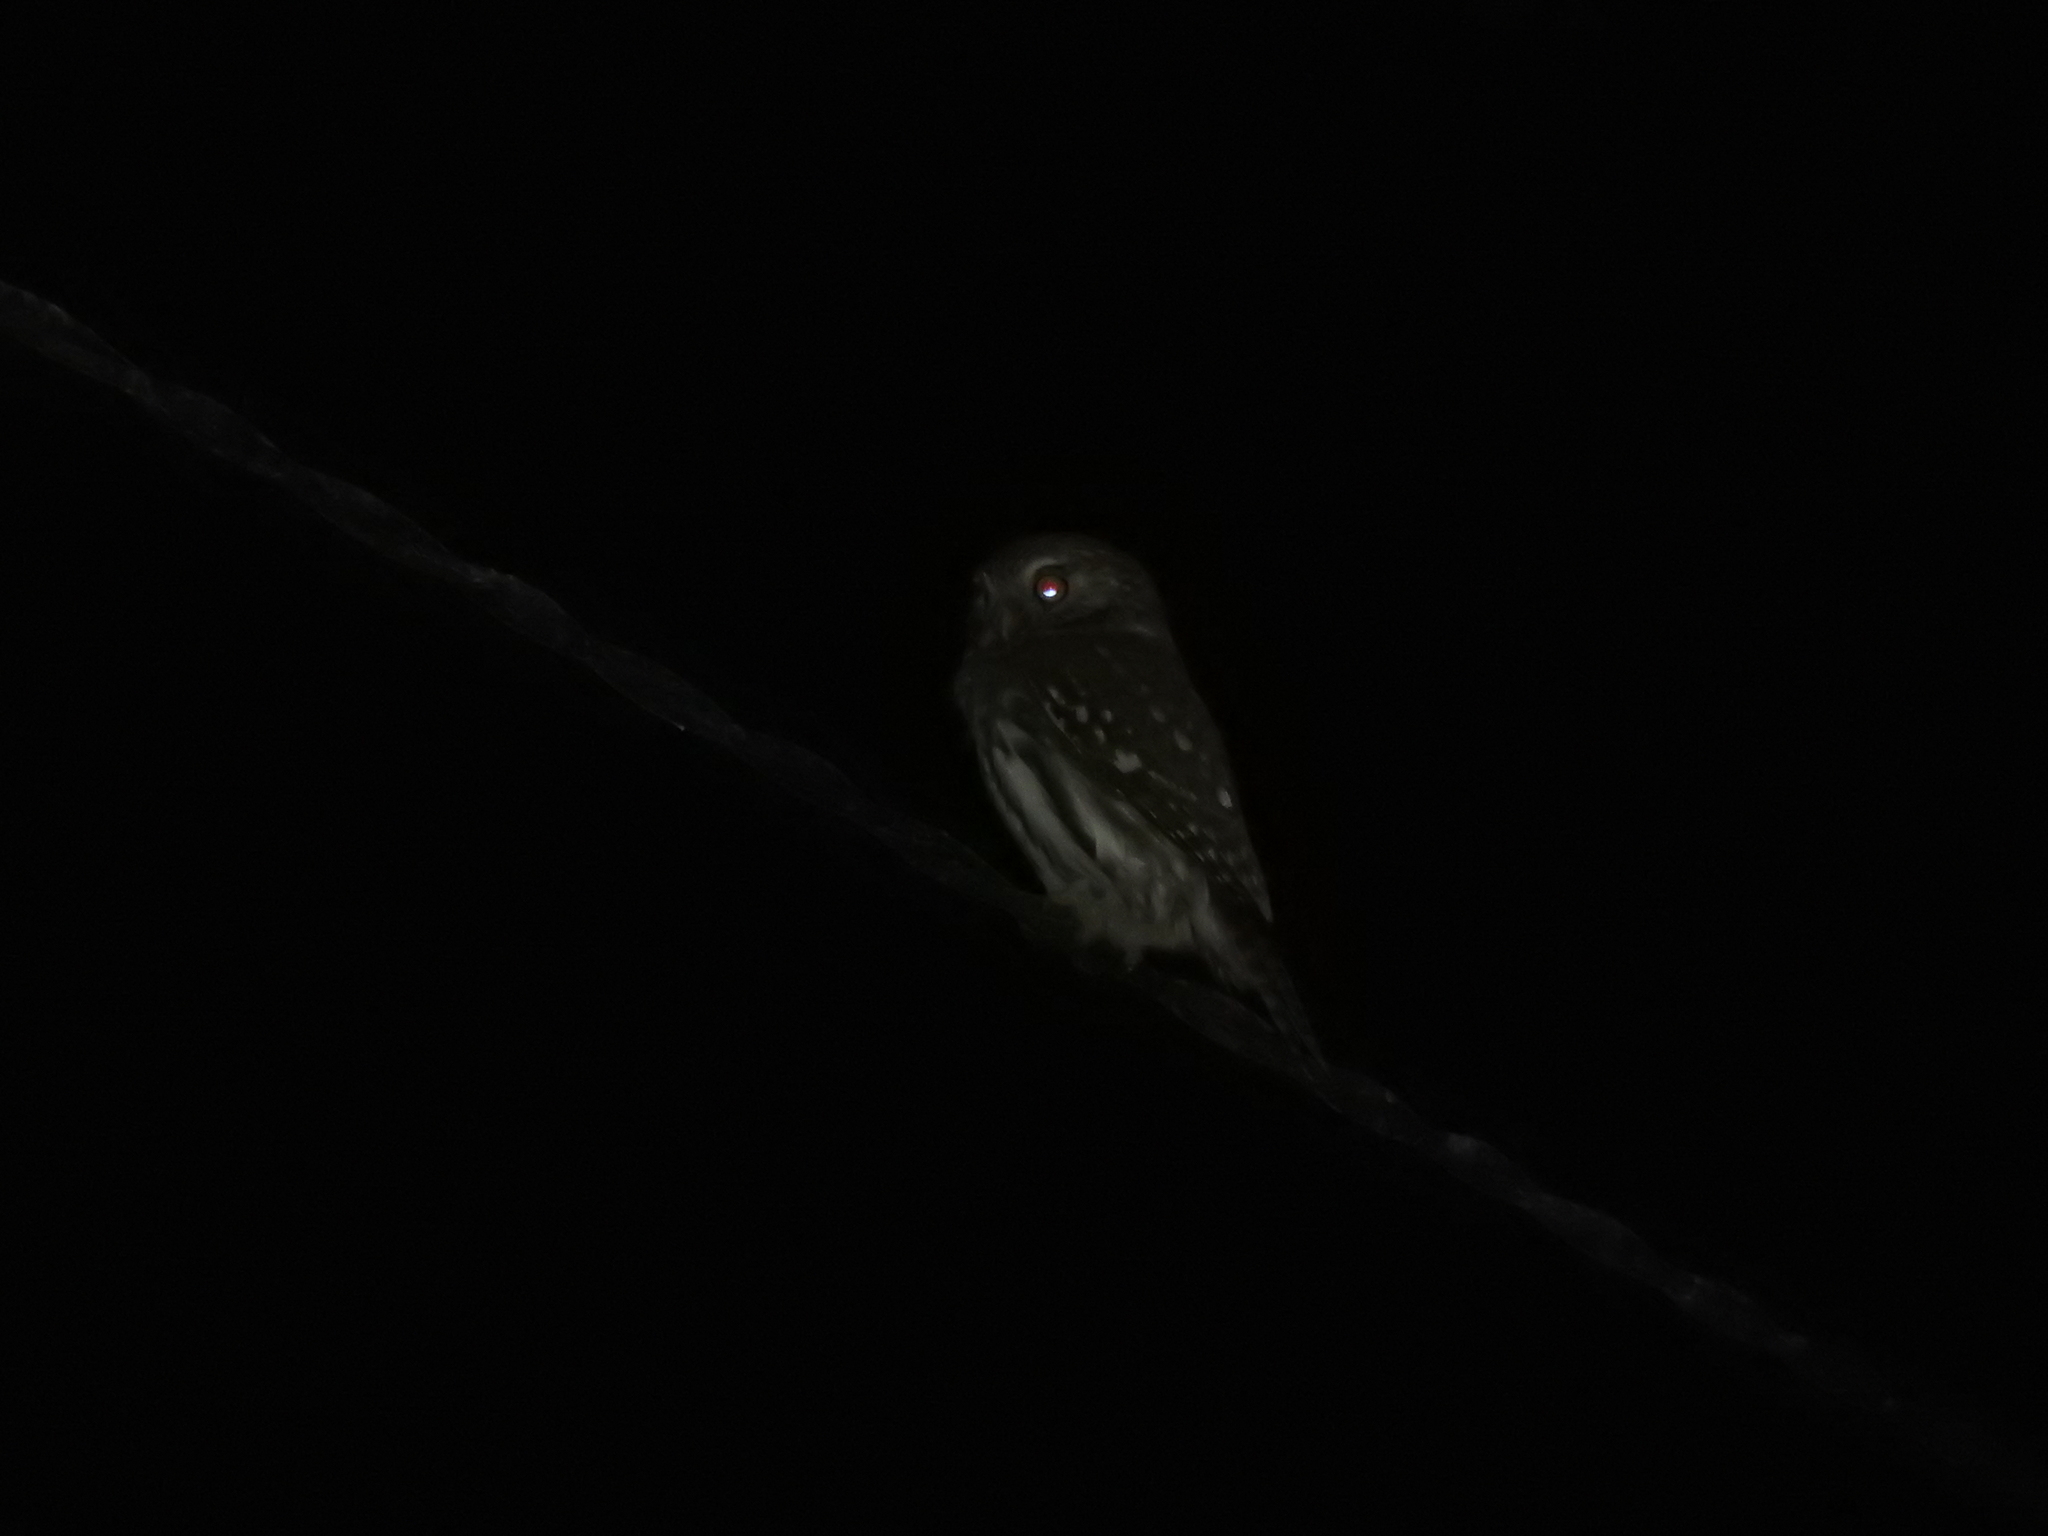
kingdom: Animalia
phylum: Chordata
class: Aves
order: Strigiformes
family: Strigidae
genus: Glaucidium
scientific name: Glaucidium brasilianum
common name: Ferruginous pygmy-owl
